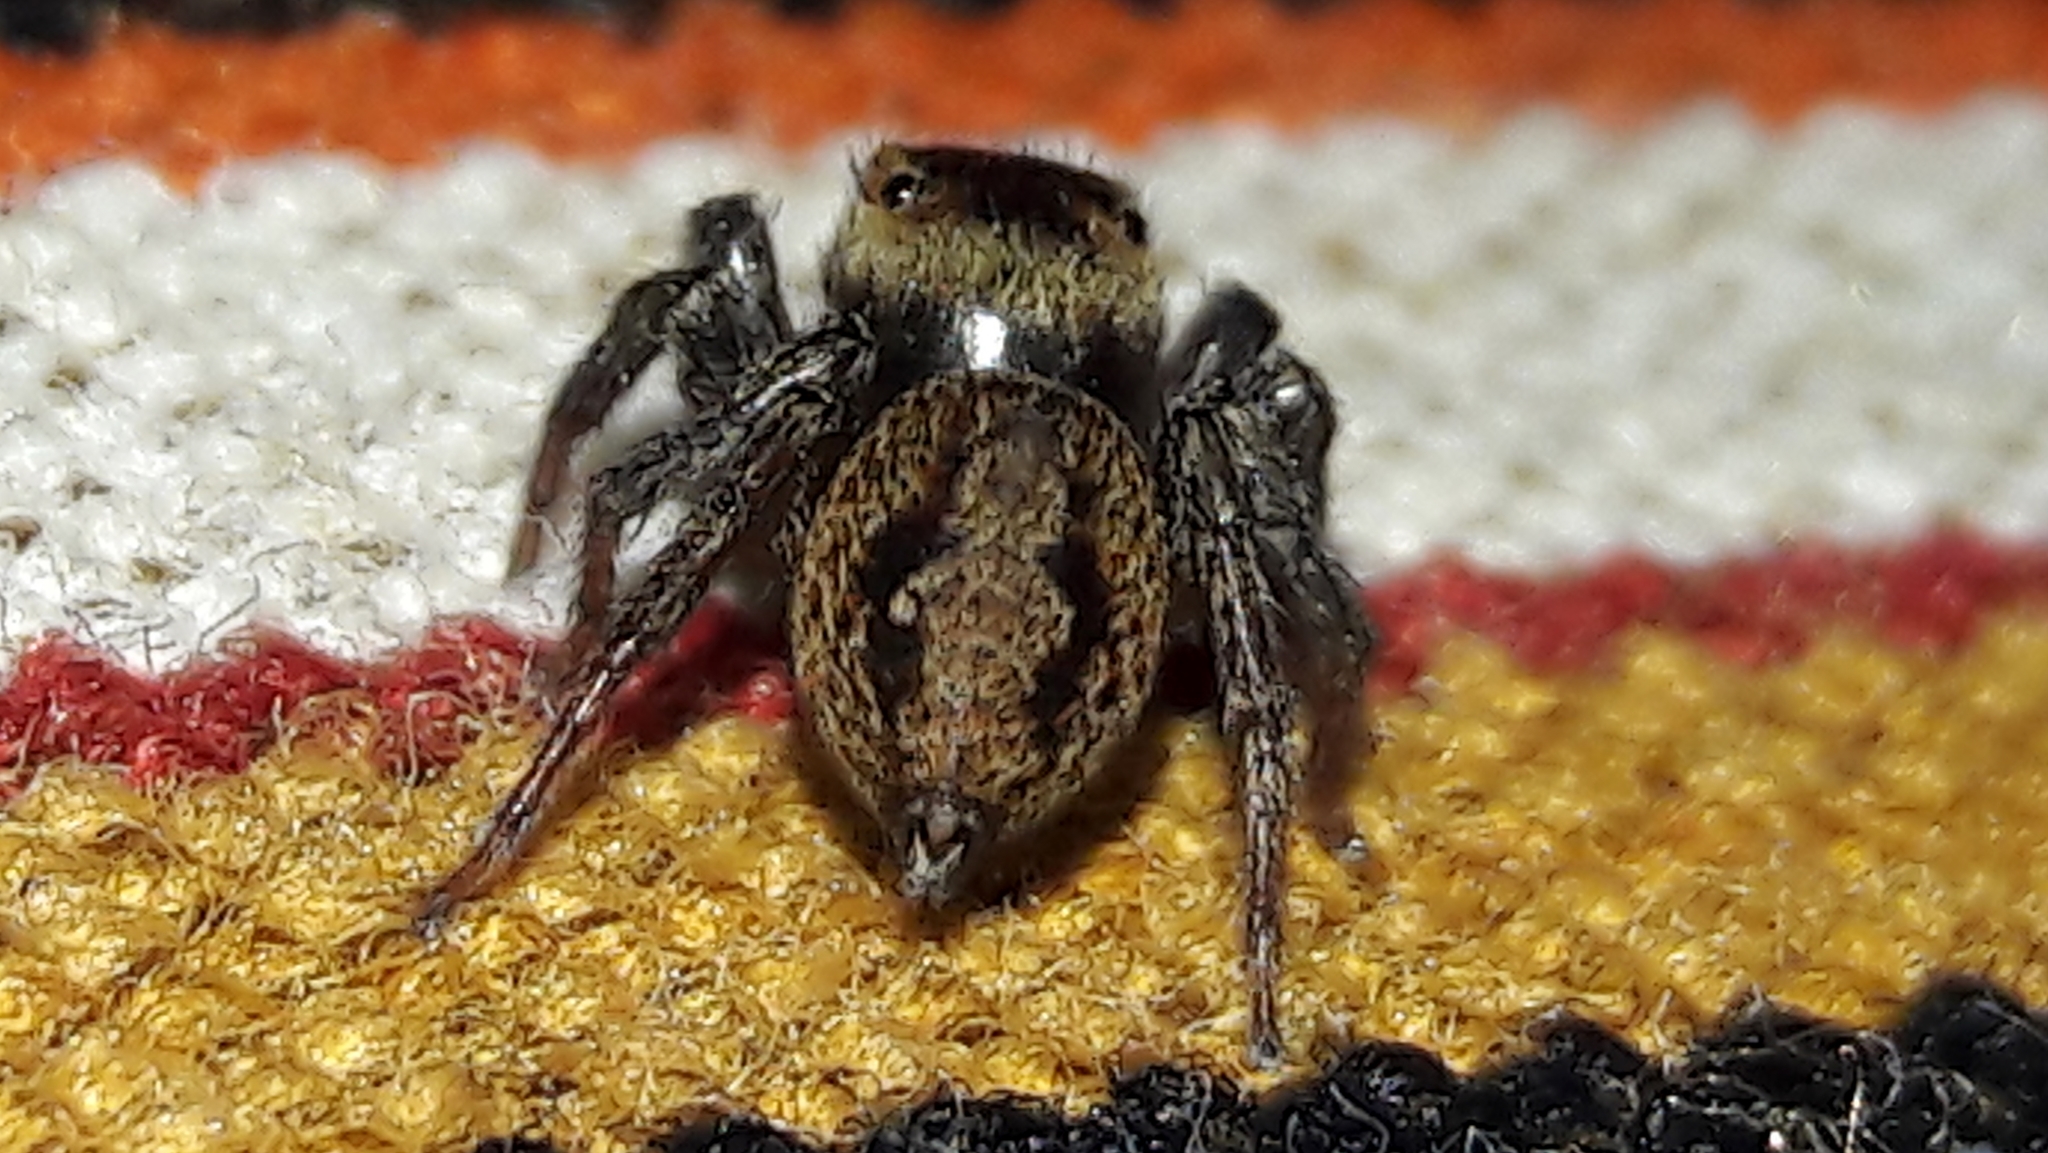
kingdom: Animalia
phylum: Arthropoda
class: Arachnida
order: Araneae
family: Salticidae
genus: Hasarius
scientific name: Hasarius adansoni
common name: Jumping spider
